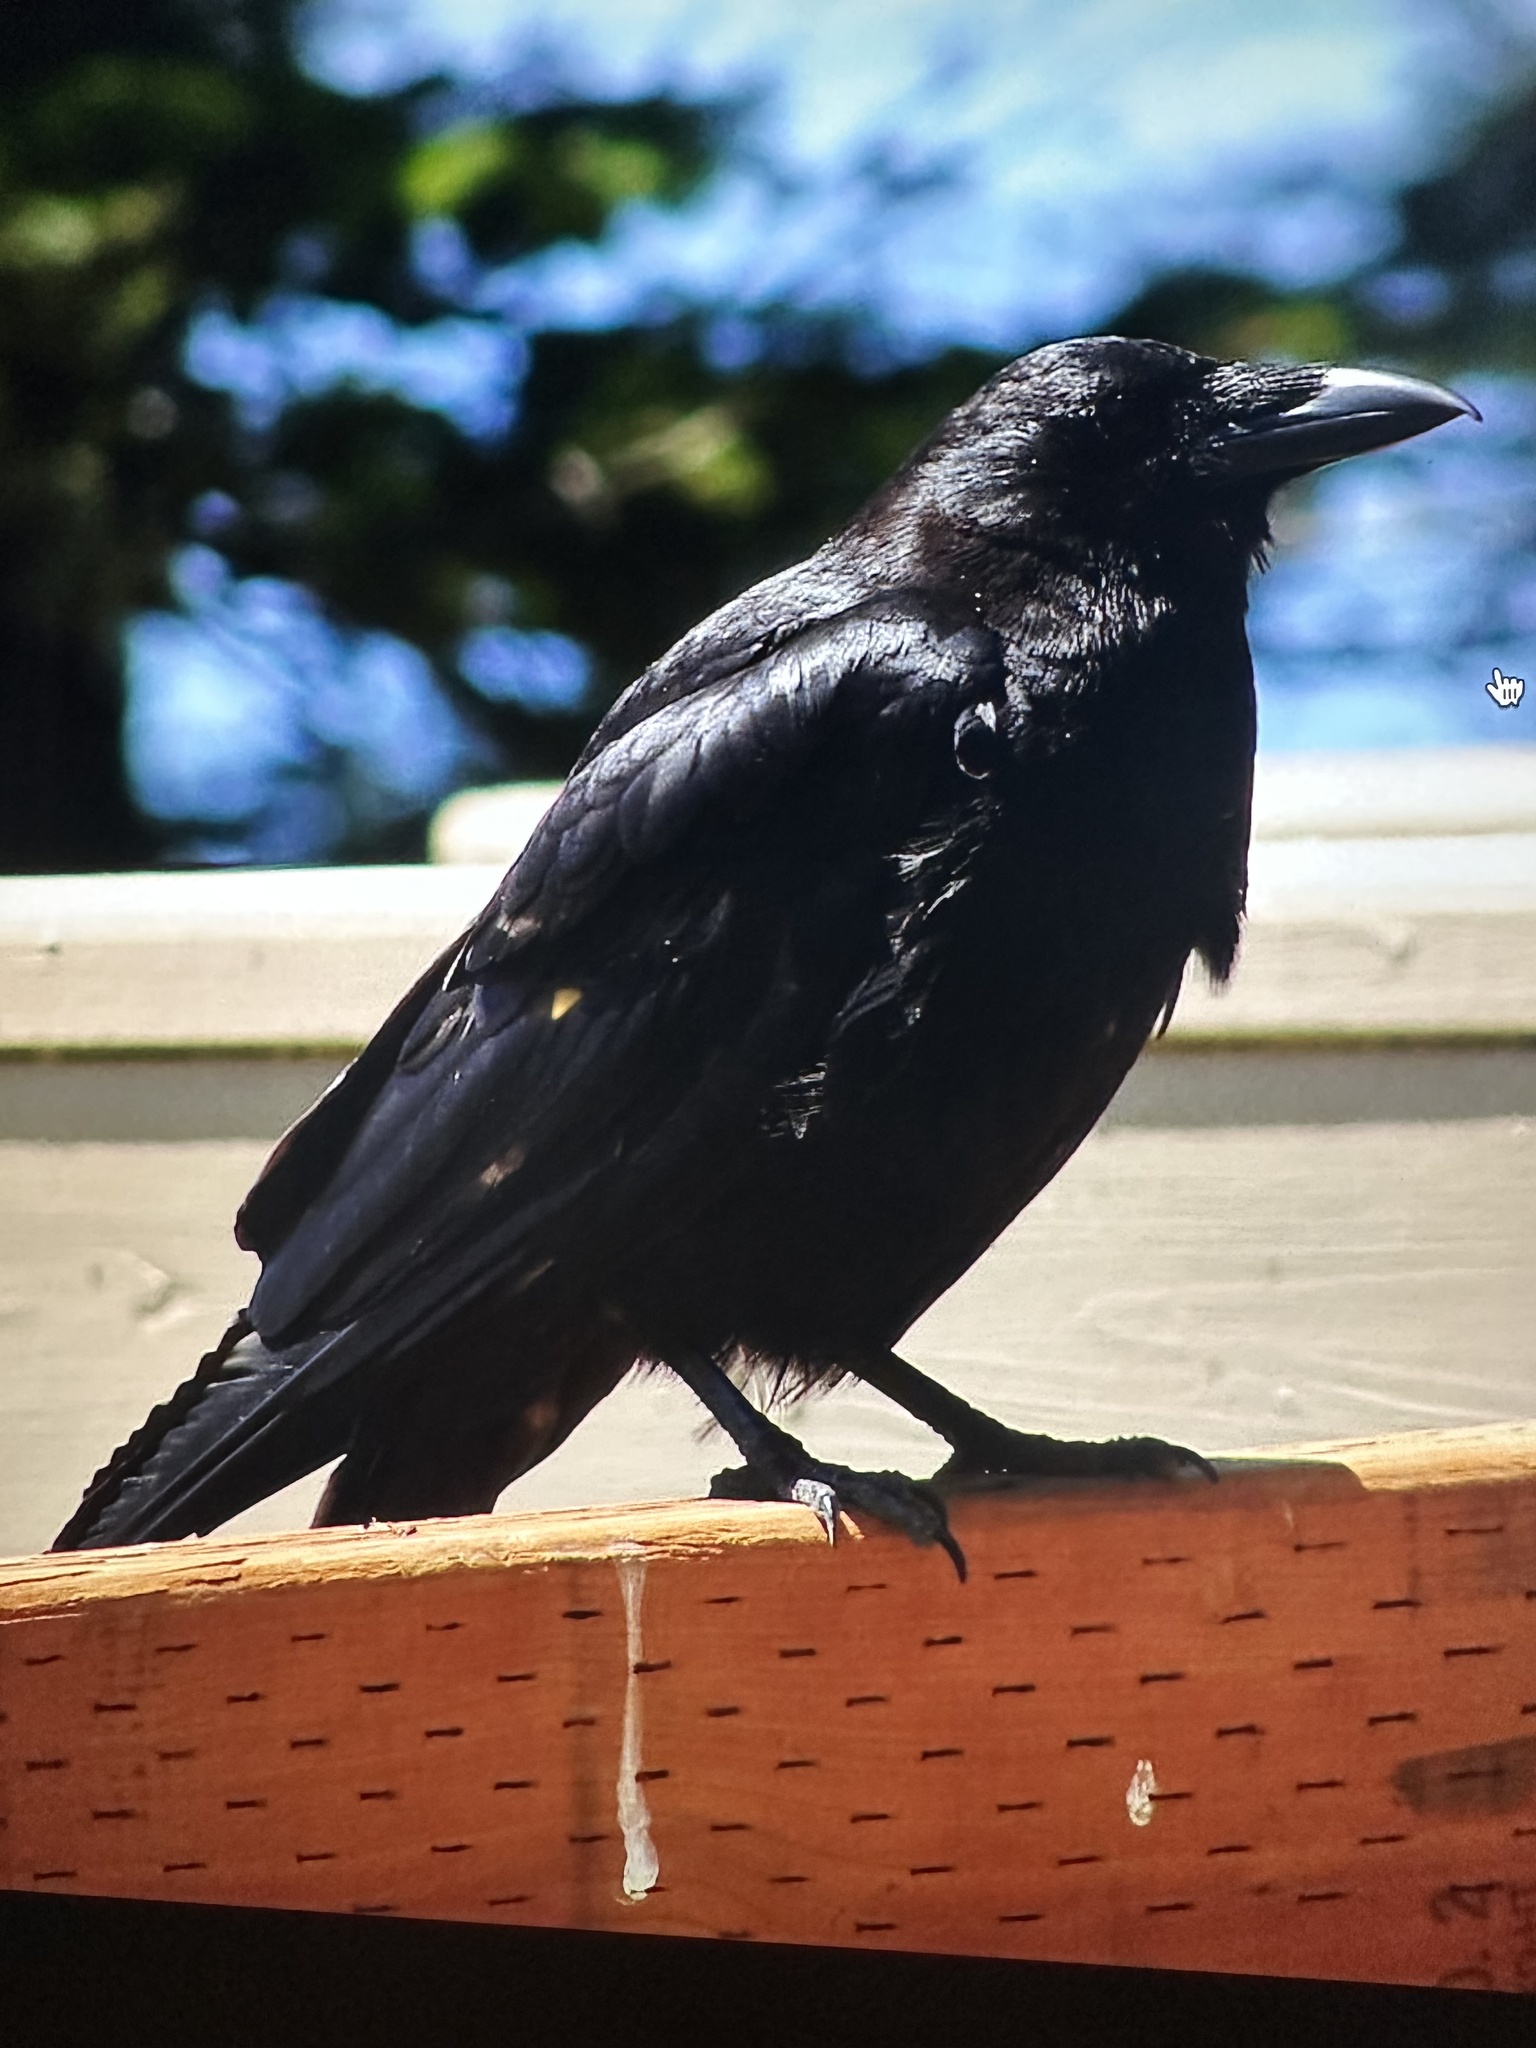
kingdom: Animalia
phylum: Chordata
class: Aves
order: Passeriformes
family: Corvidae
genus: Corvus
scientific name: Corvus brachyrhynchos
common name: American crow
